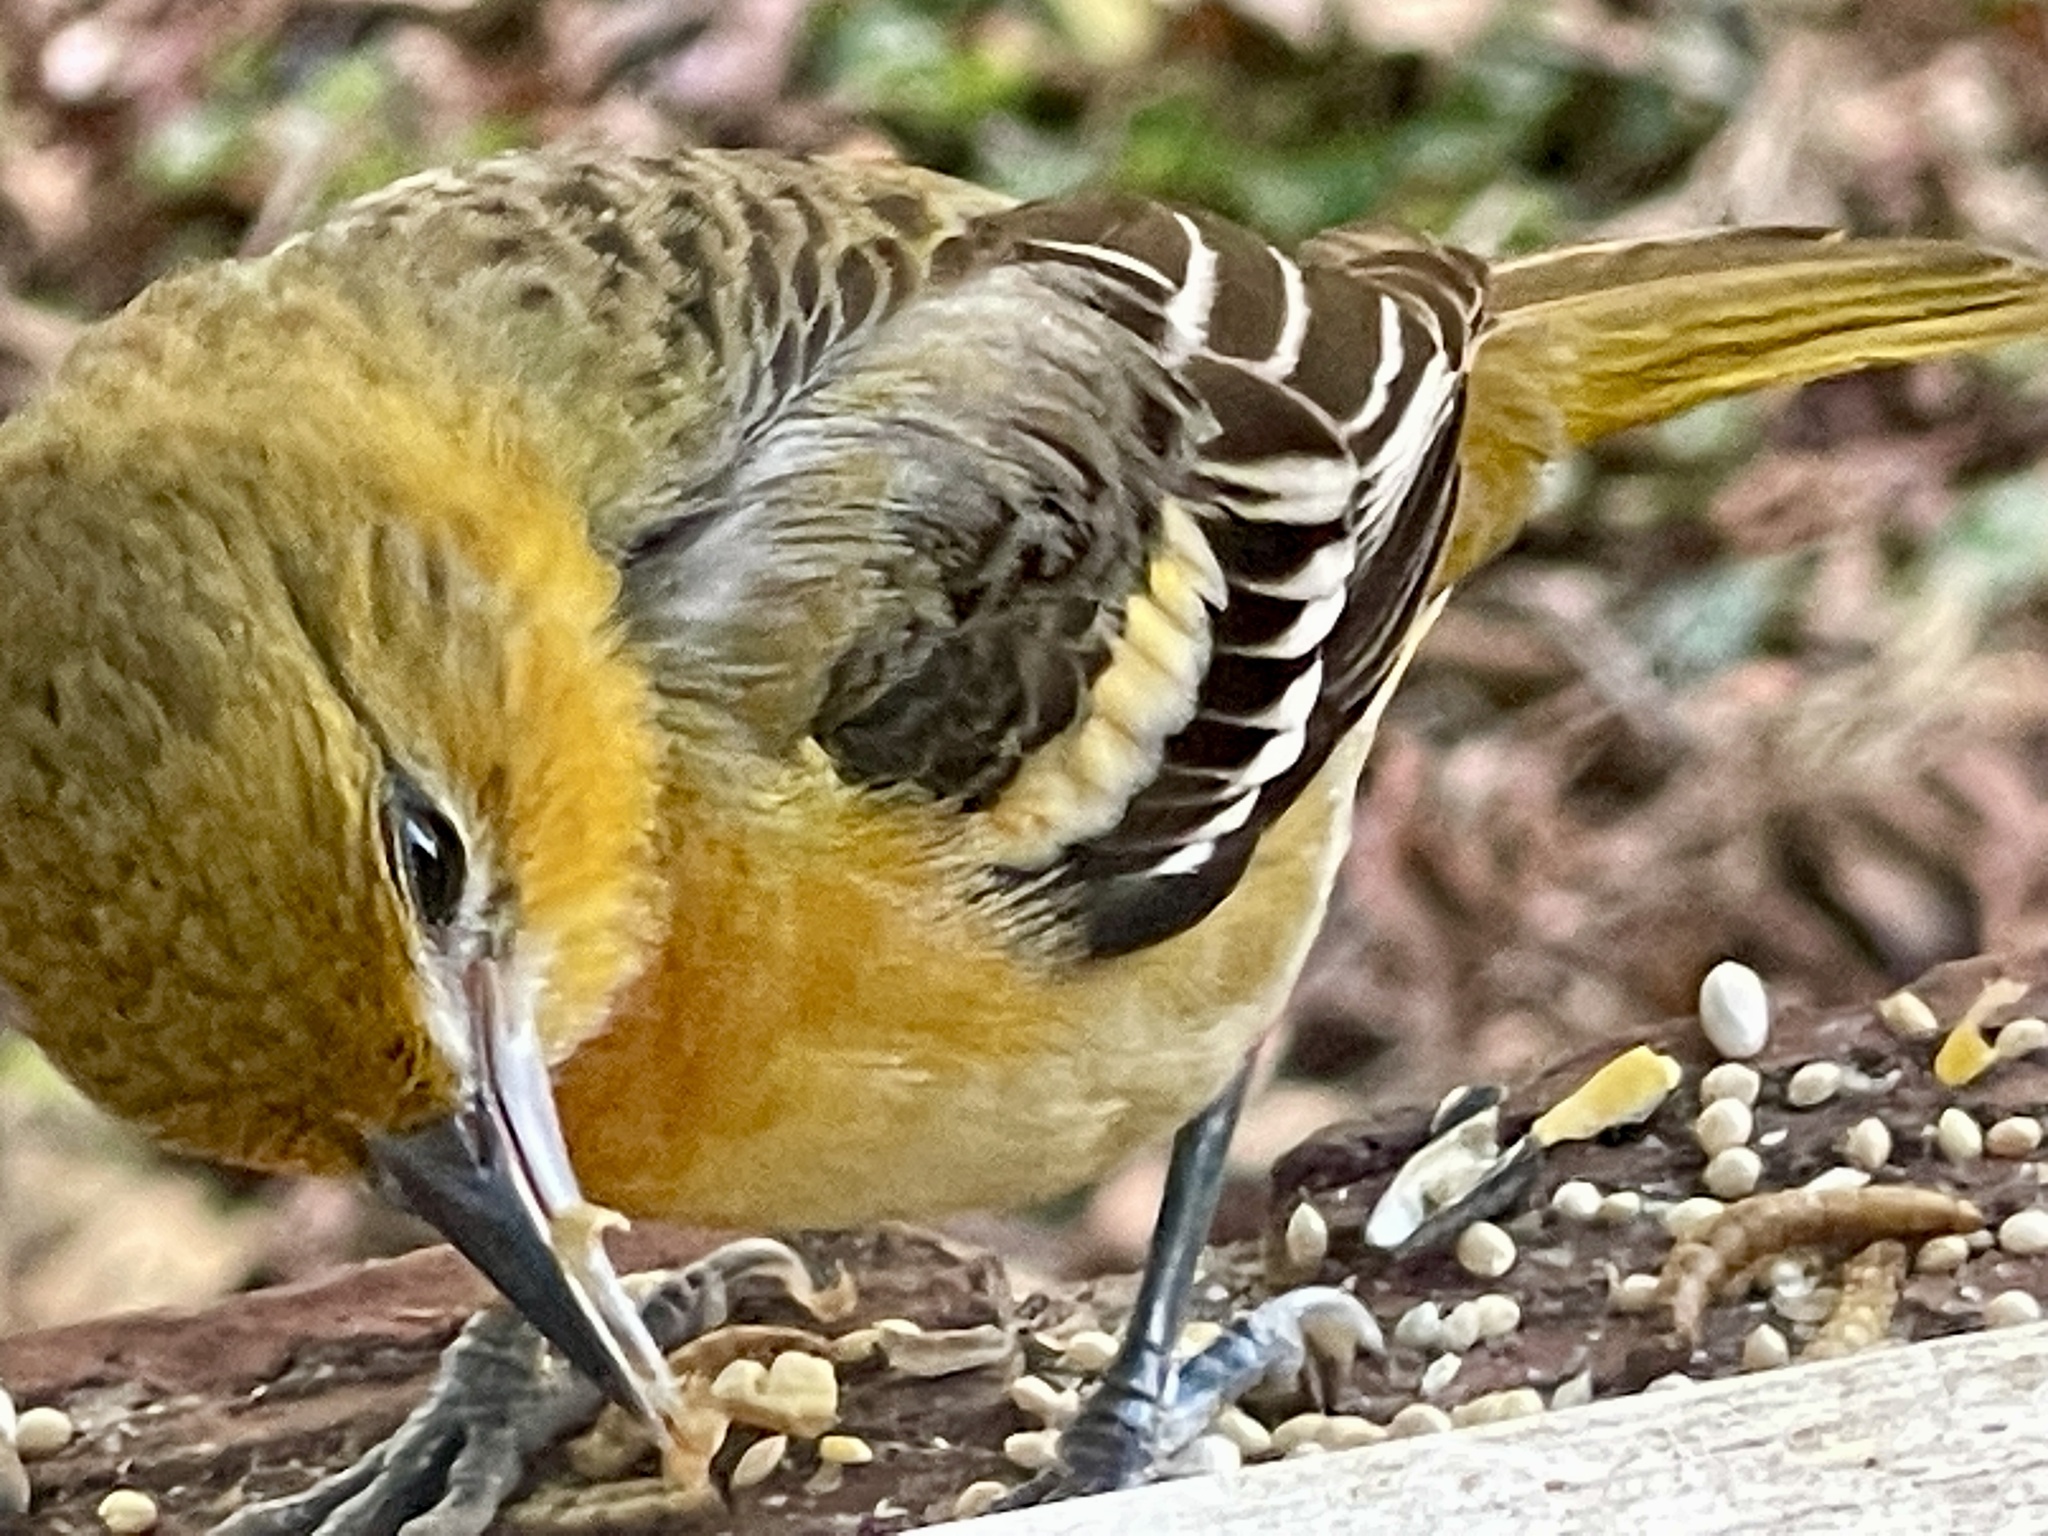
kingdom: Animalia
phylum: Chordata
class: Aves
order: Passeriformes
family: Icteridae
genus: Icterus
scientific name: Icterus galbula
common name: Baltimore oriole
